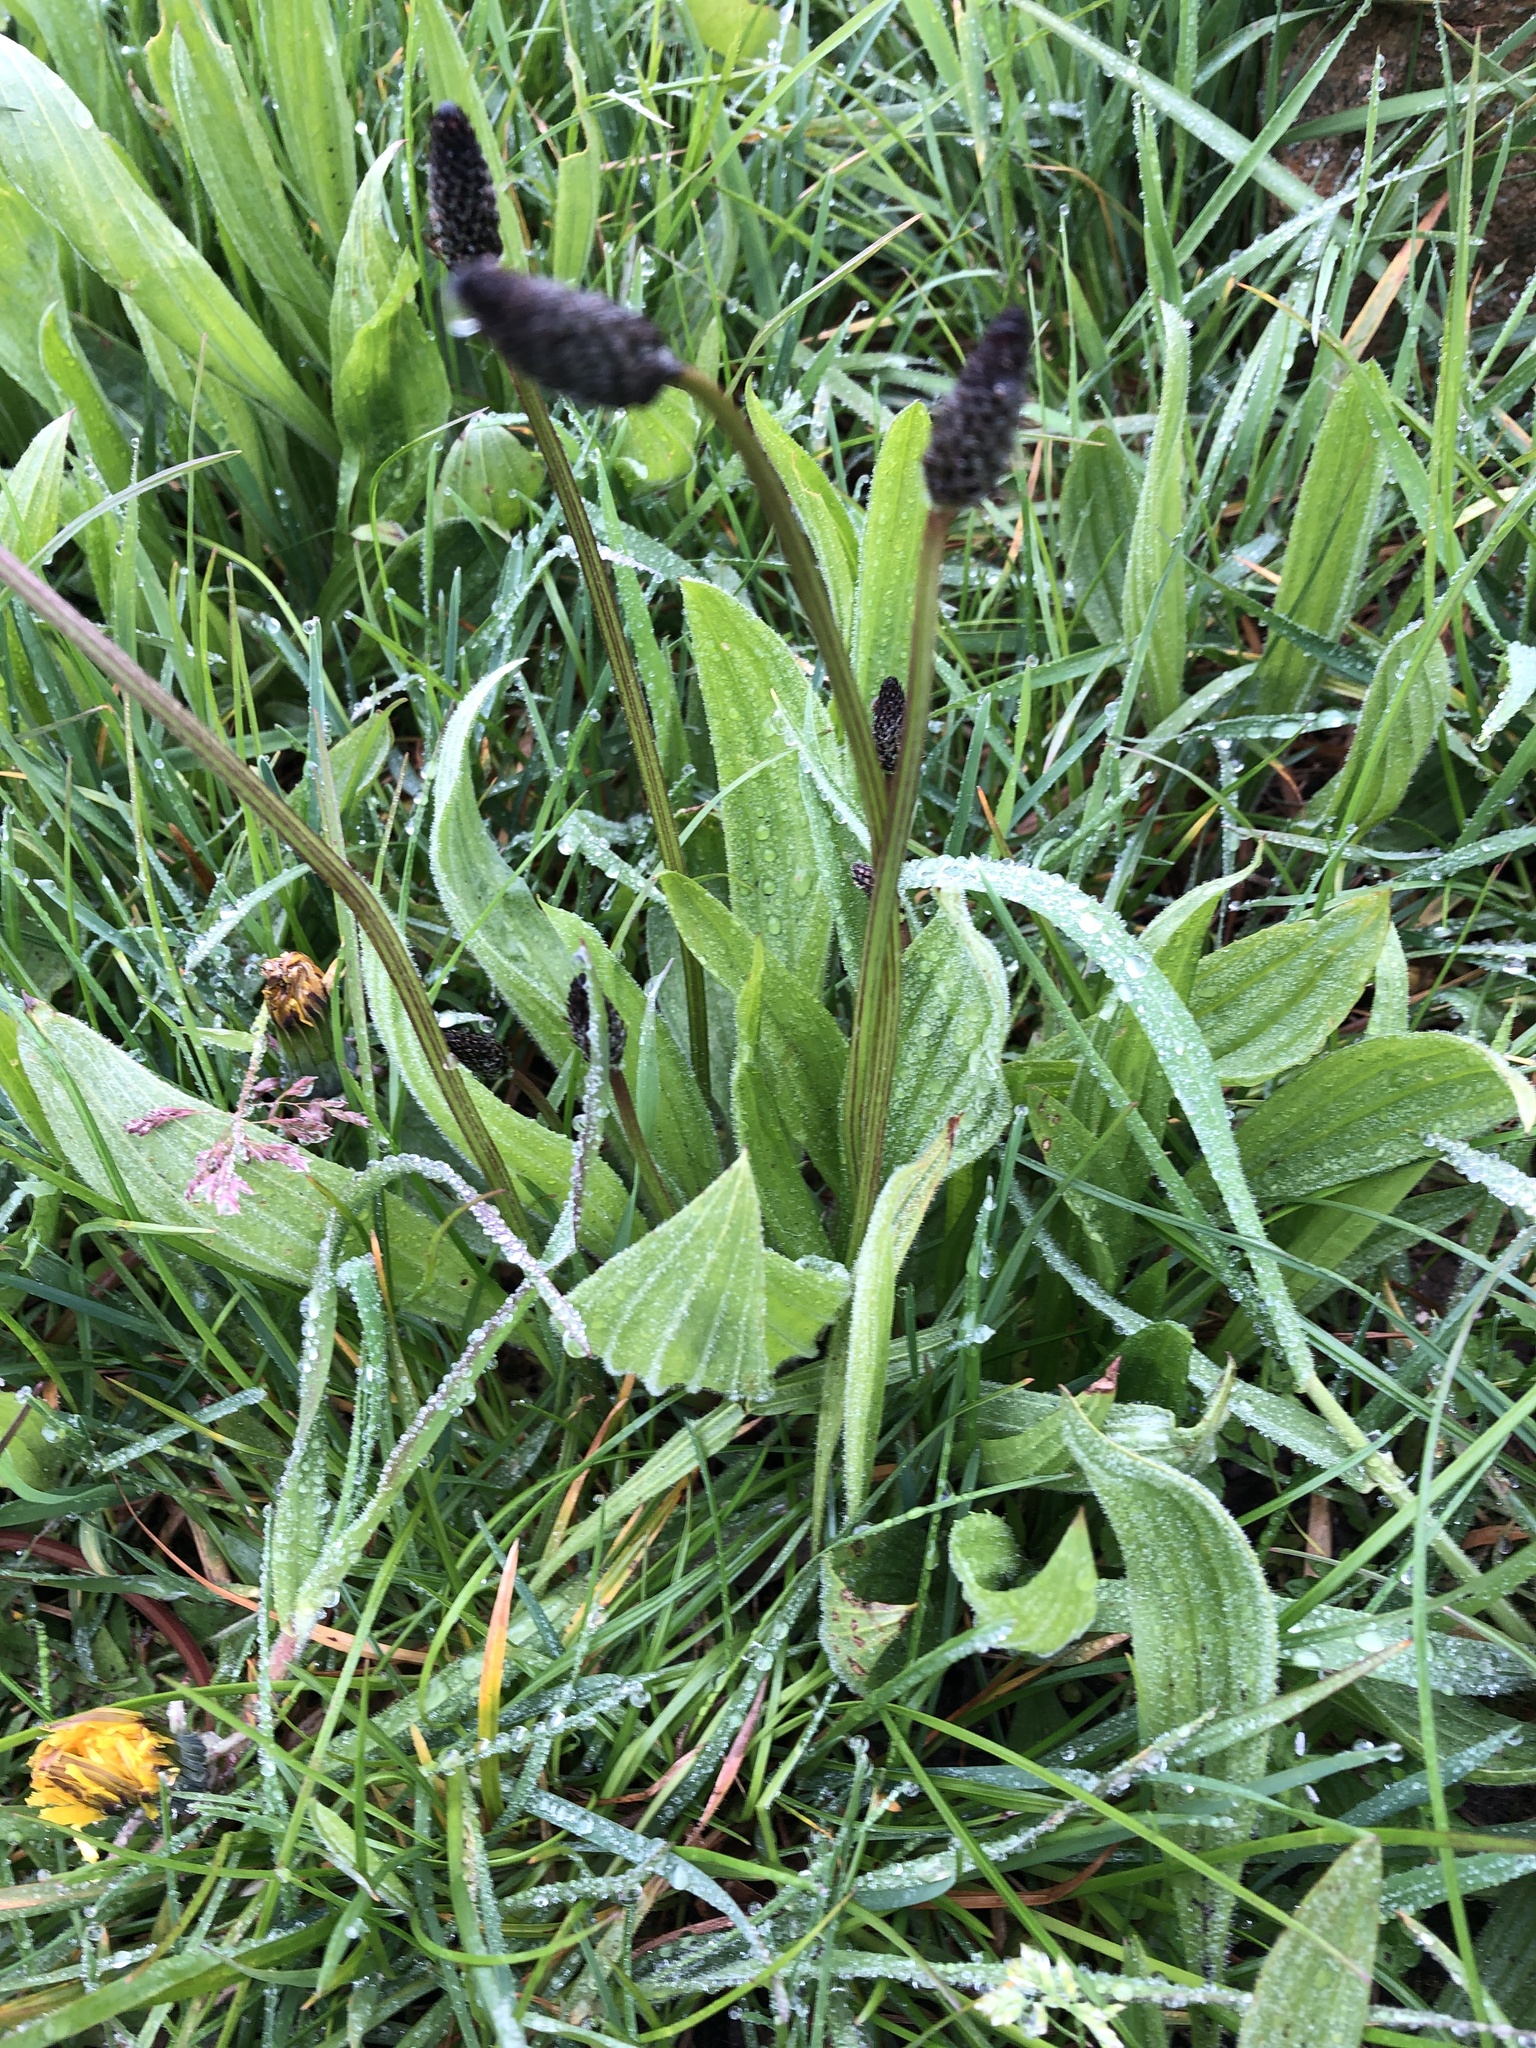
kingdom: Plantae
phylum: Tracheophyta
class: Magnoliopsida
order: Lamiales
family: Plantaginaceae
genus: Plantago
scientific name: Plantago lanceolata
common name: Ribwort plantain
